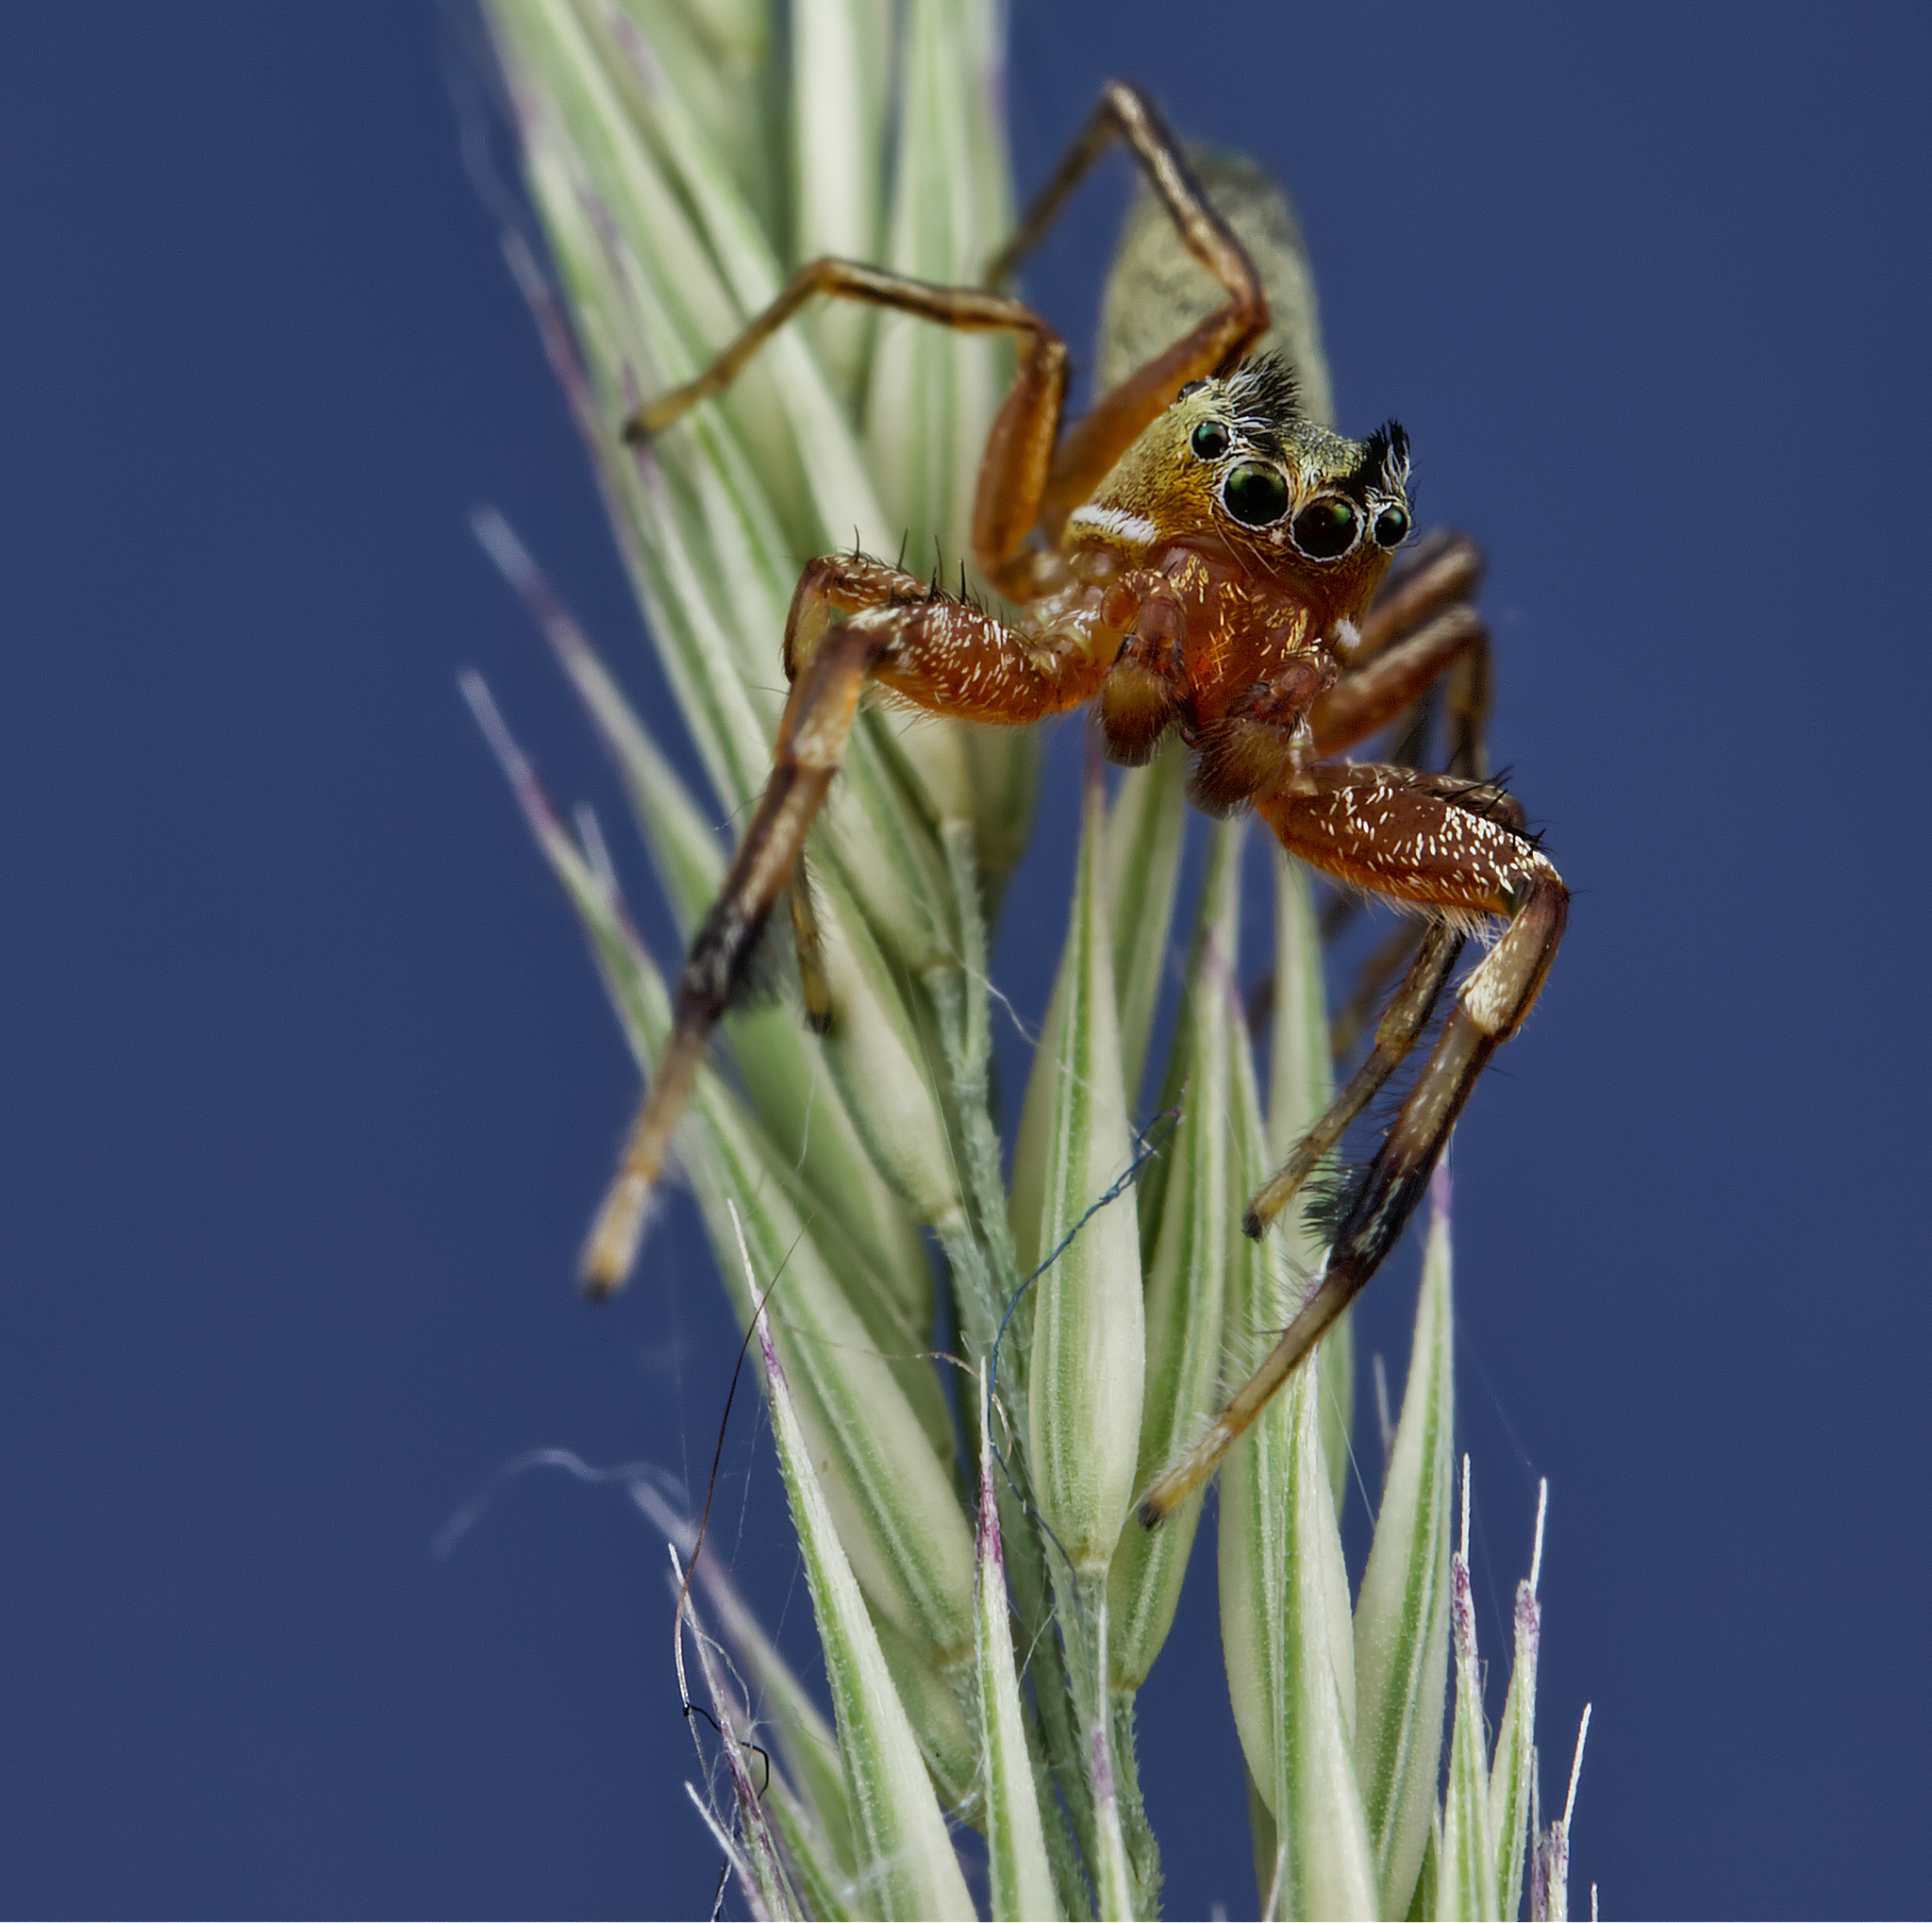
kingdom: Animalia
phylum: Arthropoda
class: Arachnida
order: Araneae
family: Salticidae
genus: Tutelina
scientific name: Tutelina elegans
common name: Thin-spined jumping spider
